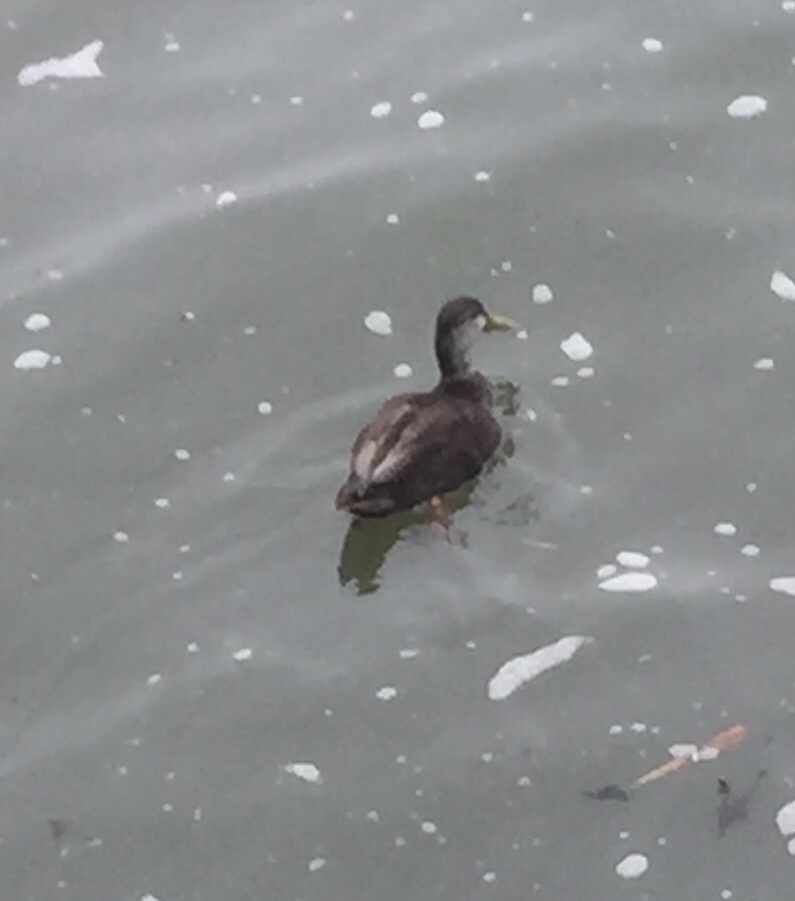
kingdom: Animalia
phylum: Chordata
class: Aves
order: Anseriformes
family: Anatidae
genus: Anas
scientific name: Anas rubripes
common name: American black duck
